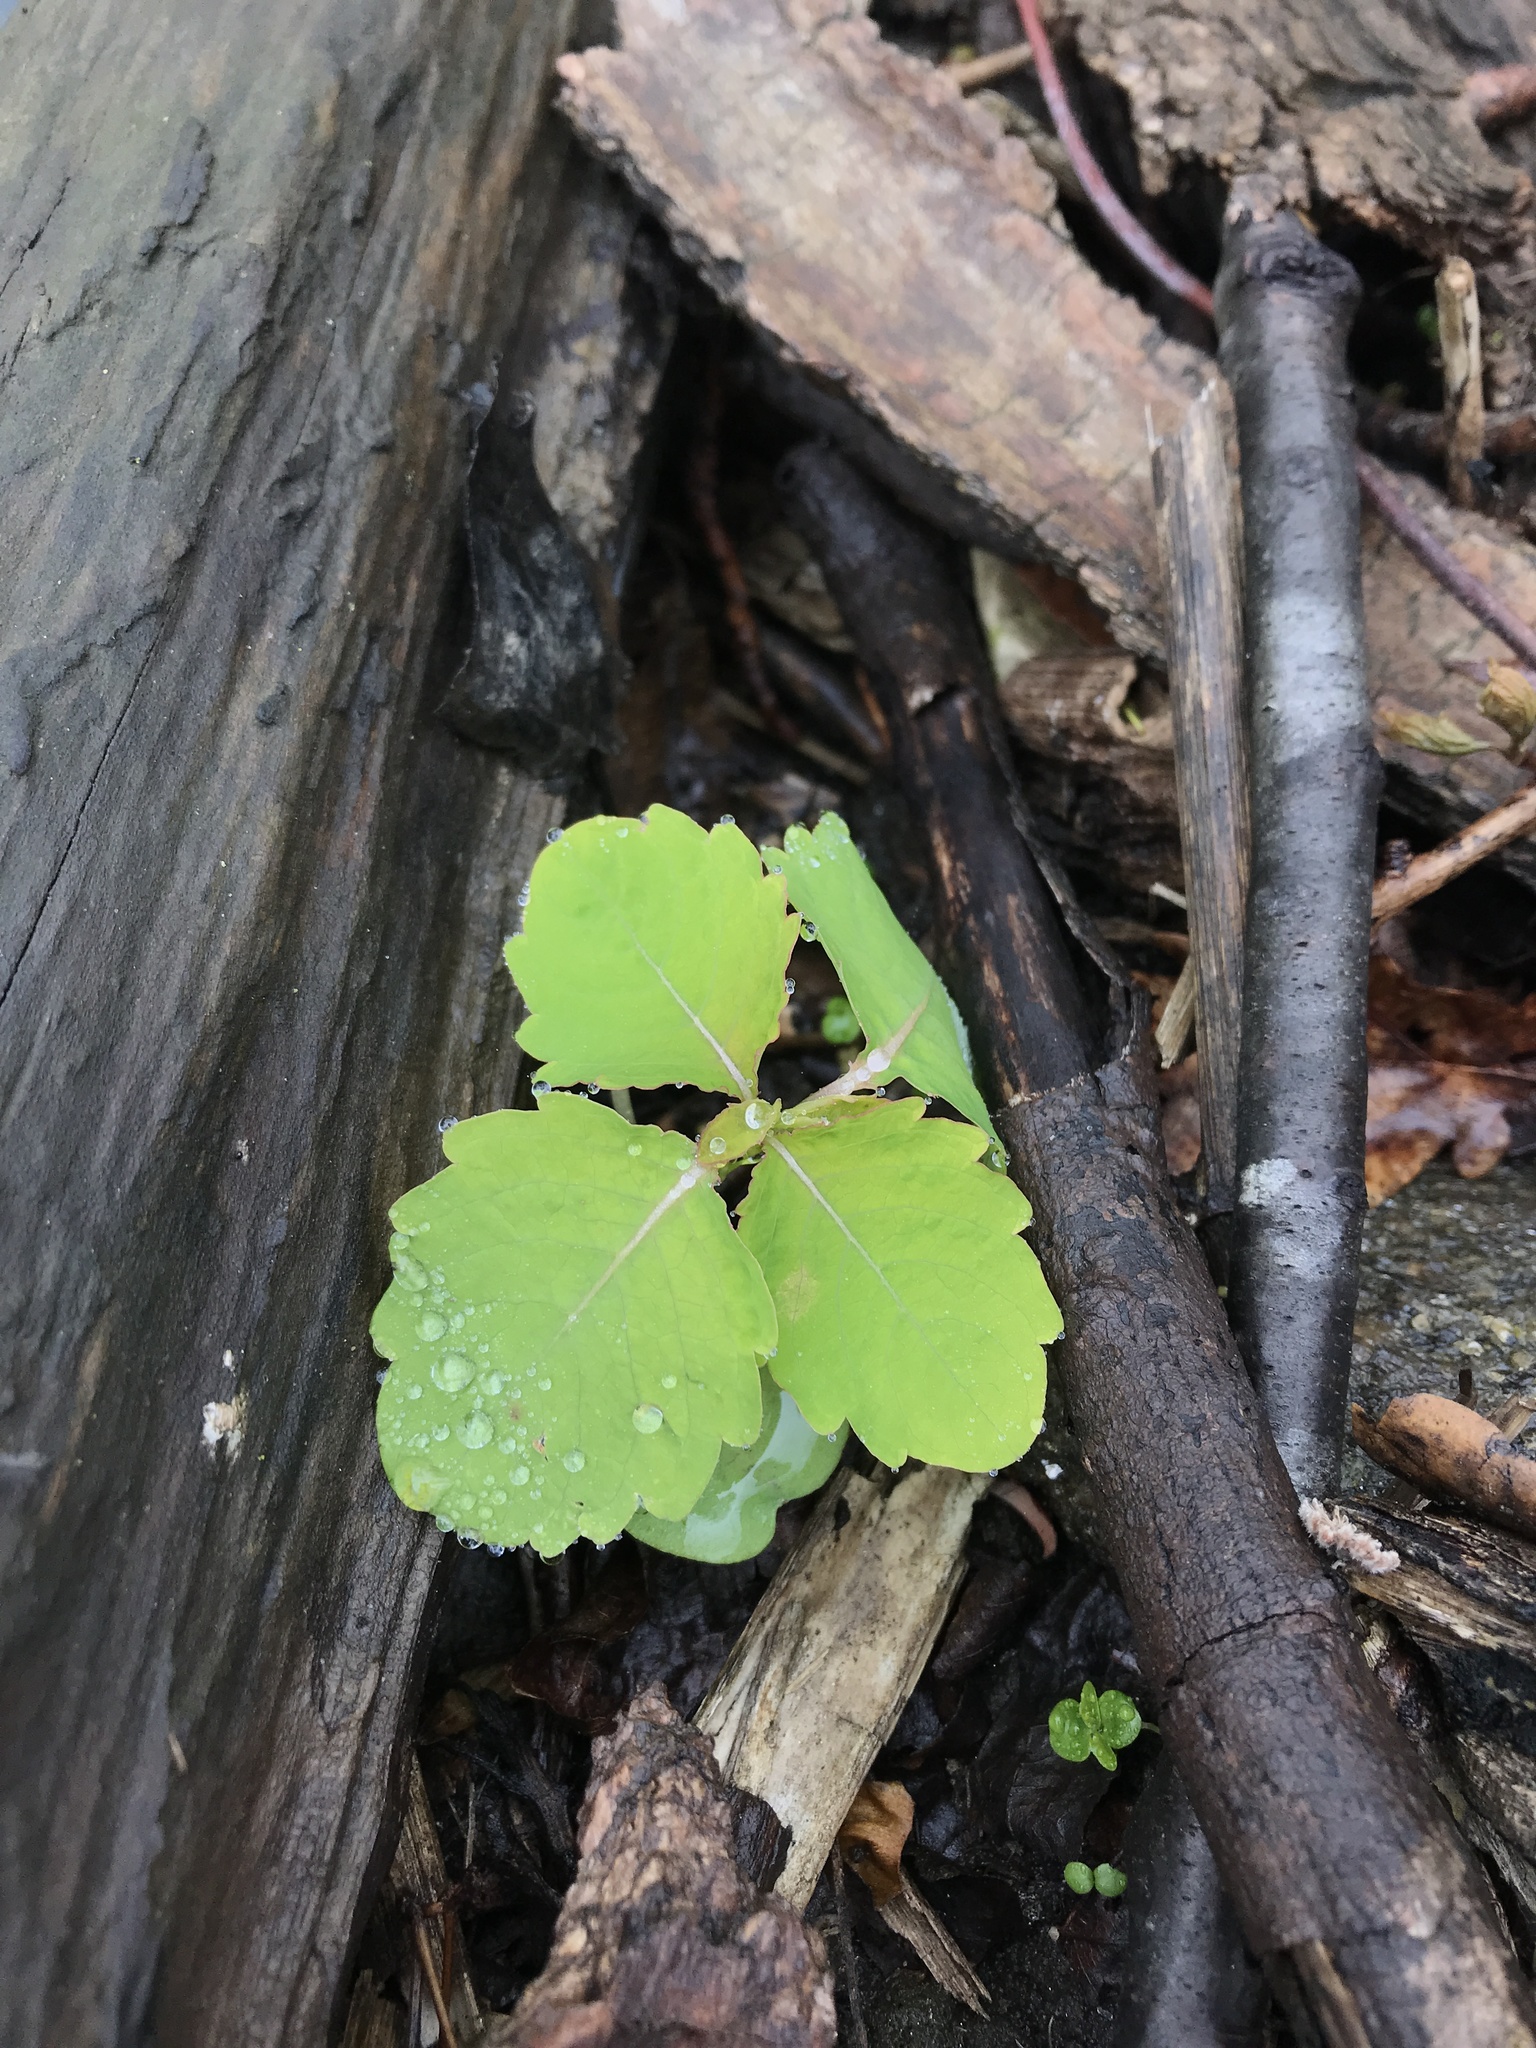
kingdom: Plantae
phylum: Tracheophyta
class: Magnoliopsida
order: Ericales
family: Balsaminaceae
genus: Impatiens
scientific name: Impatiens
